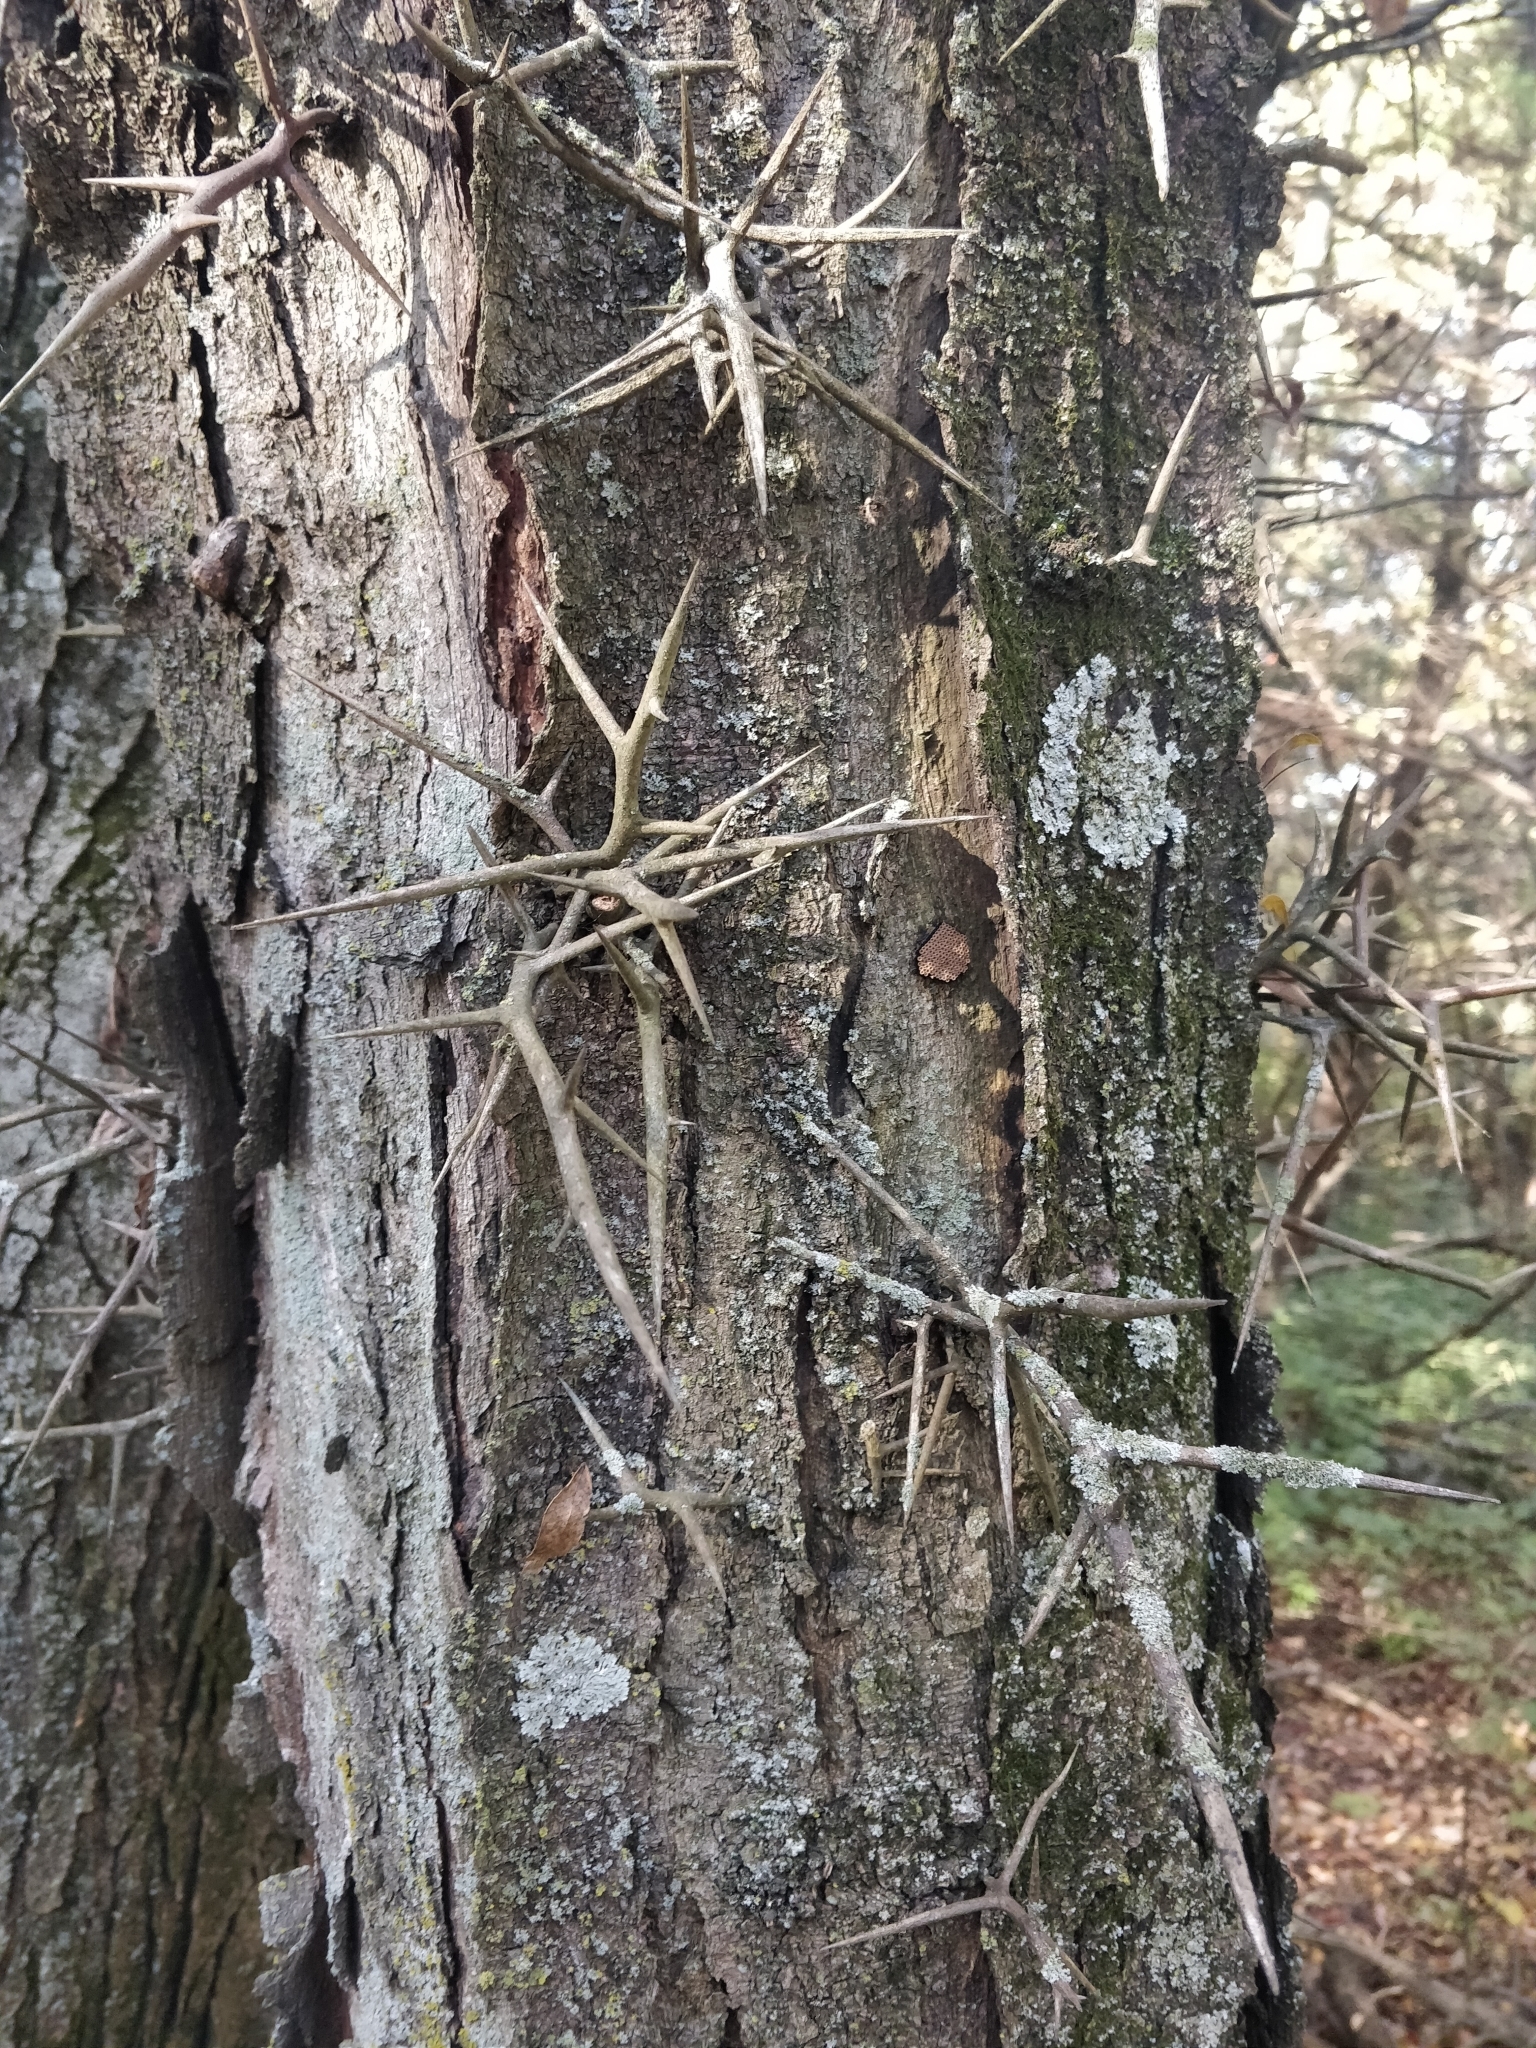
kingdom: Plantae
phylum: Tracheophyta
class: Magnoliopsida
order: Fabales
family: Fabaceae
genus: Gleditsia
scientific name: Gleditsia triacanthos
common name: Common honeylocust
